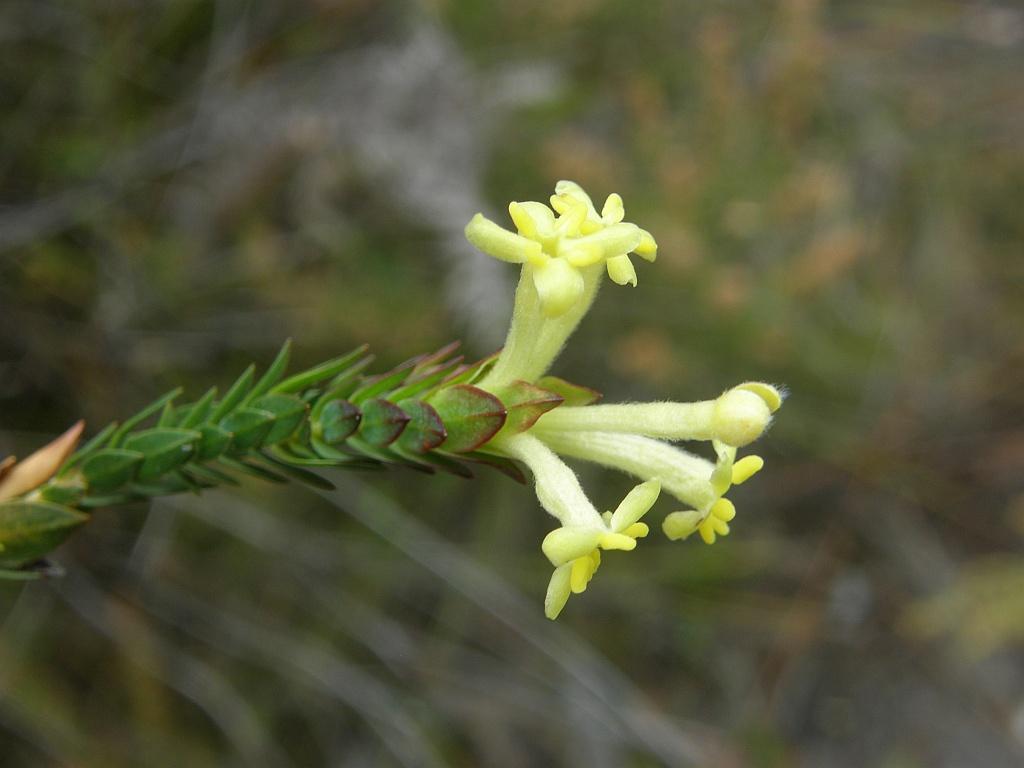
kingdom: Plantae
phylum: Tracheophyta
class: Magnoliopsida
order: Malvales
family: Thymelaeaceae
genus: Gnidia
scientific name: Gnidia oppositifolia
